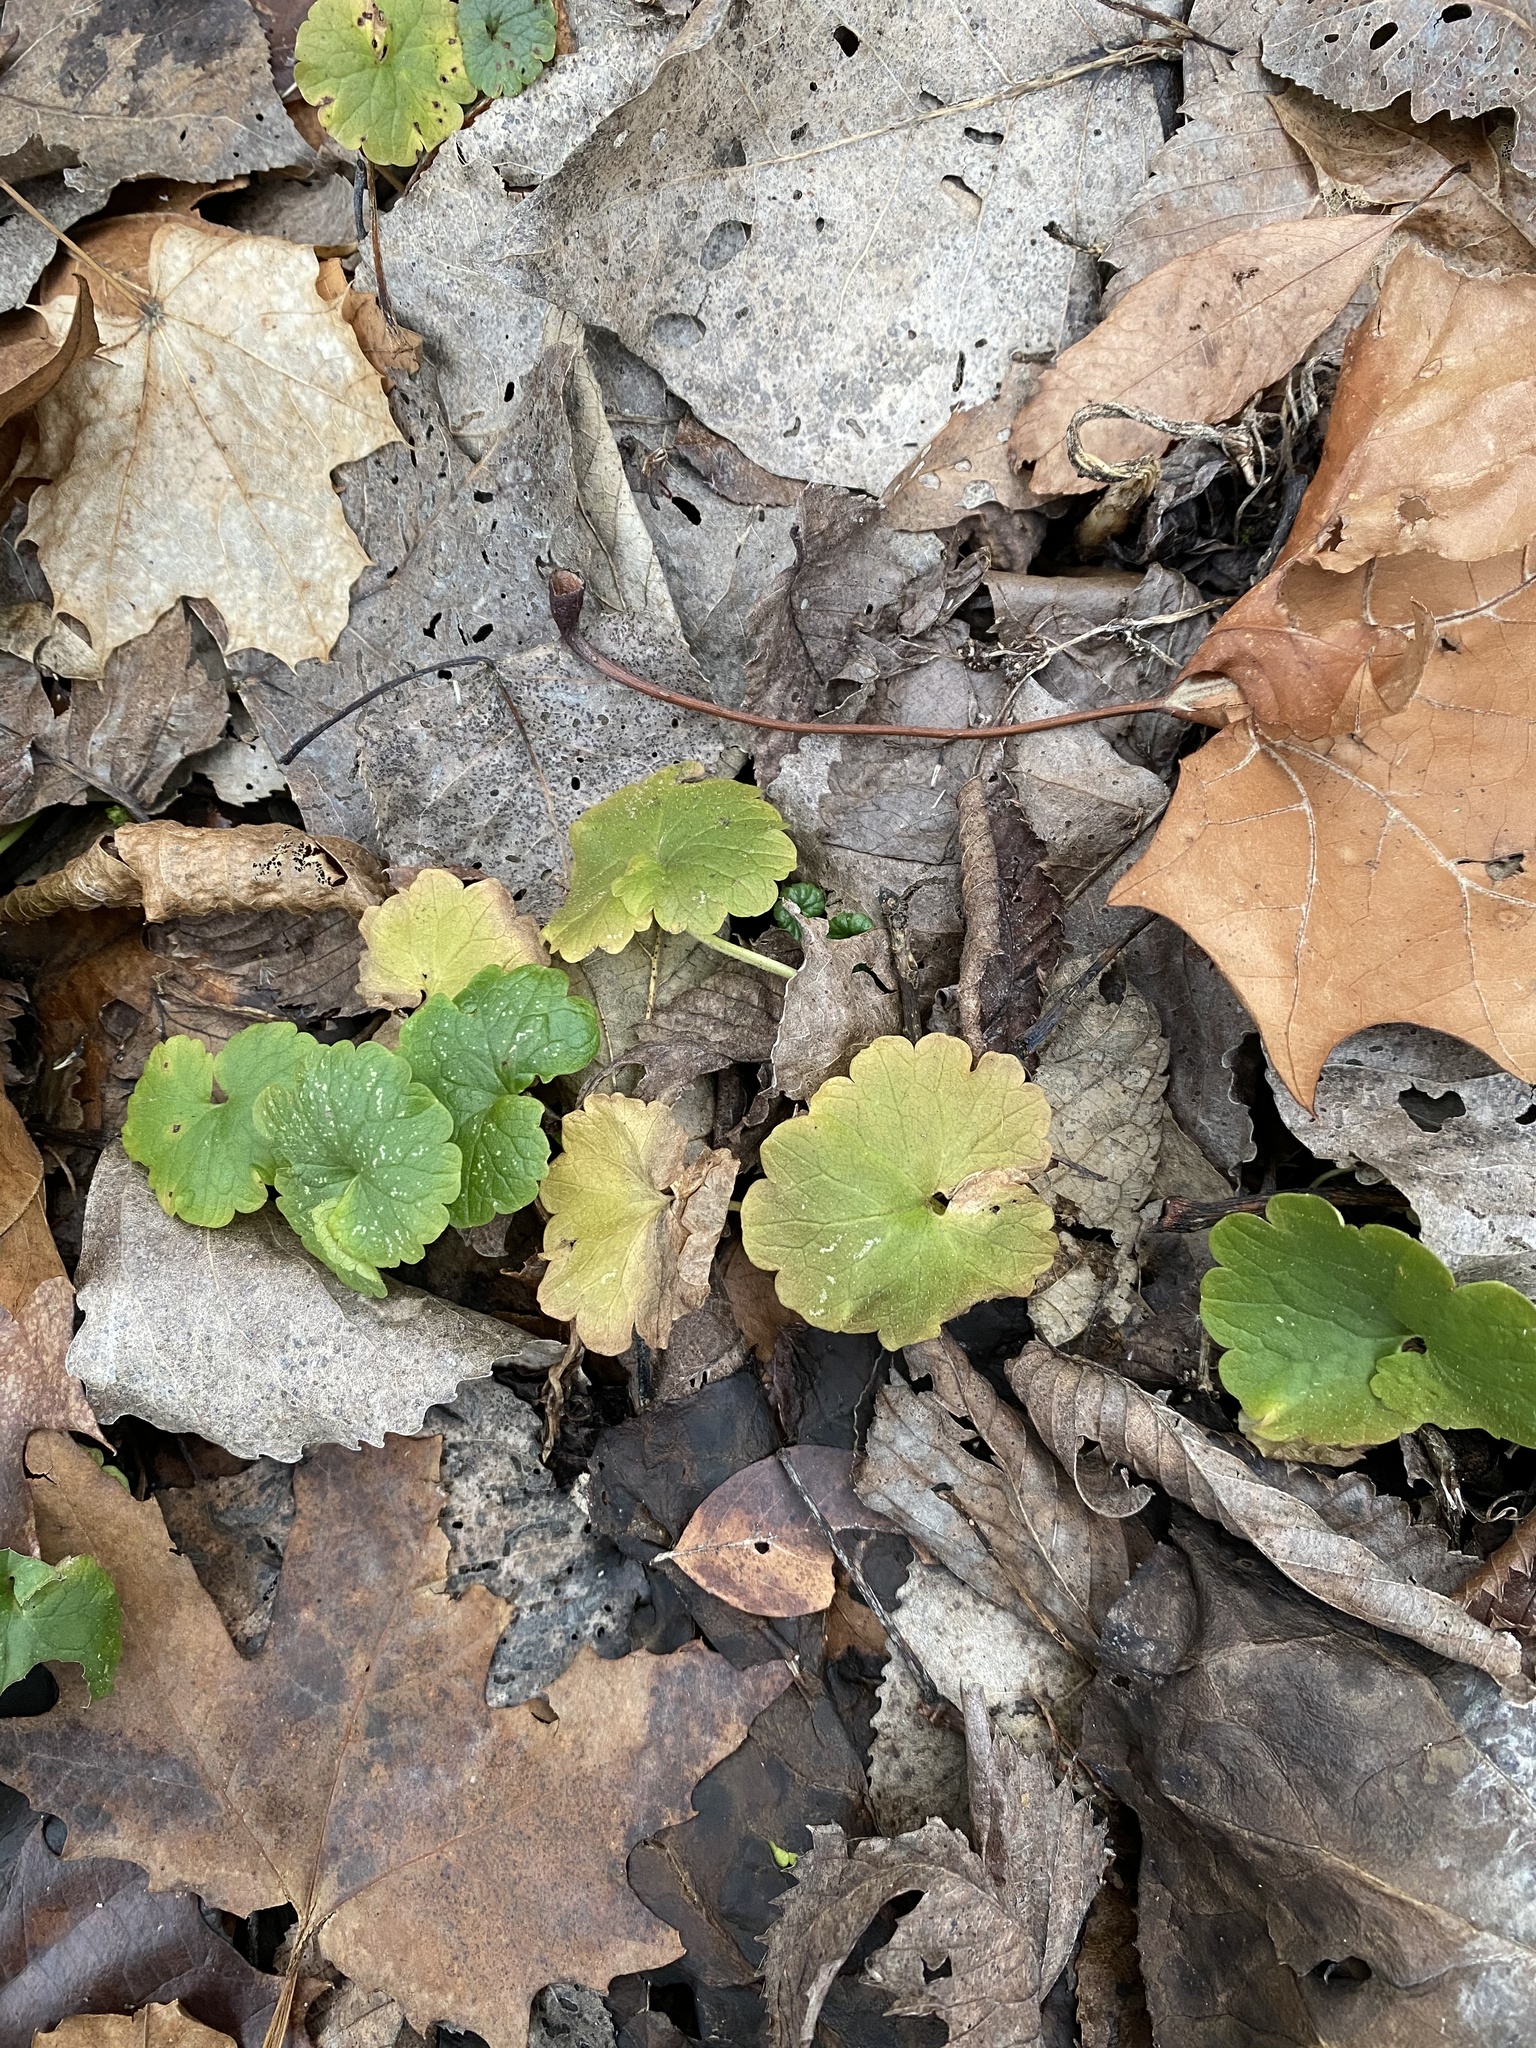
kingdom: Plantae
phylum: Tracheophyta
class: Magnoliopsida
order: Lamiales
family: Lamiaceae
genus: Glechoma
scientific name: Glechoma hederacea
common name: Ground ivy
